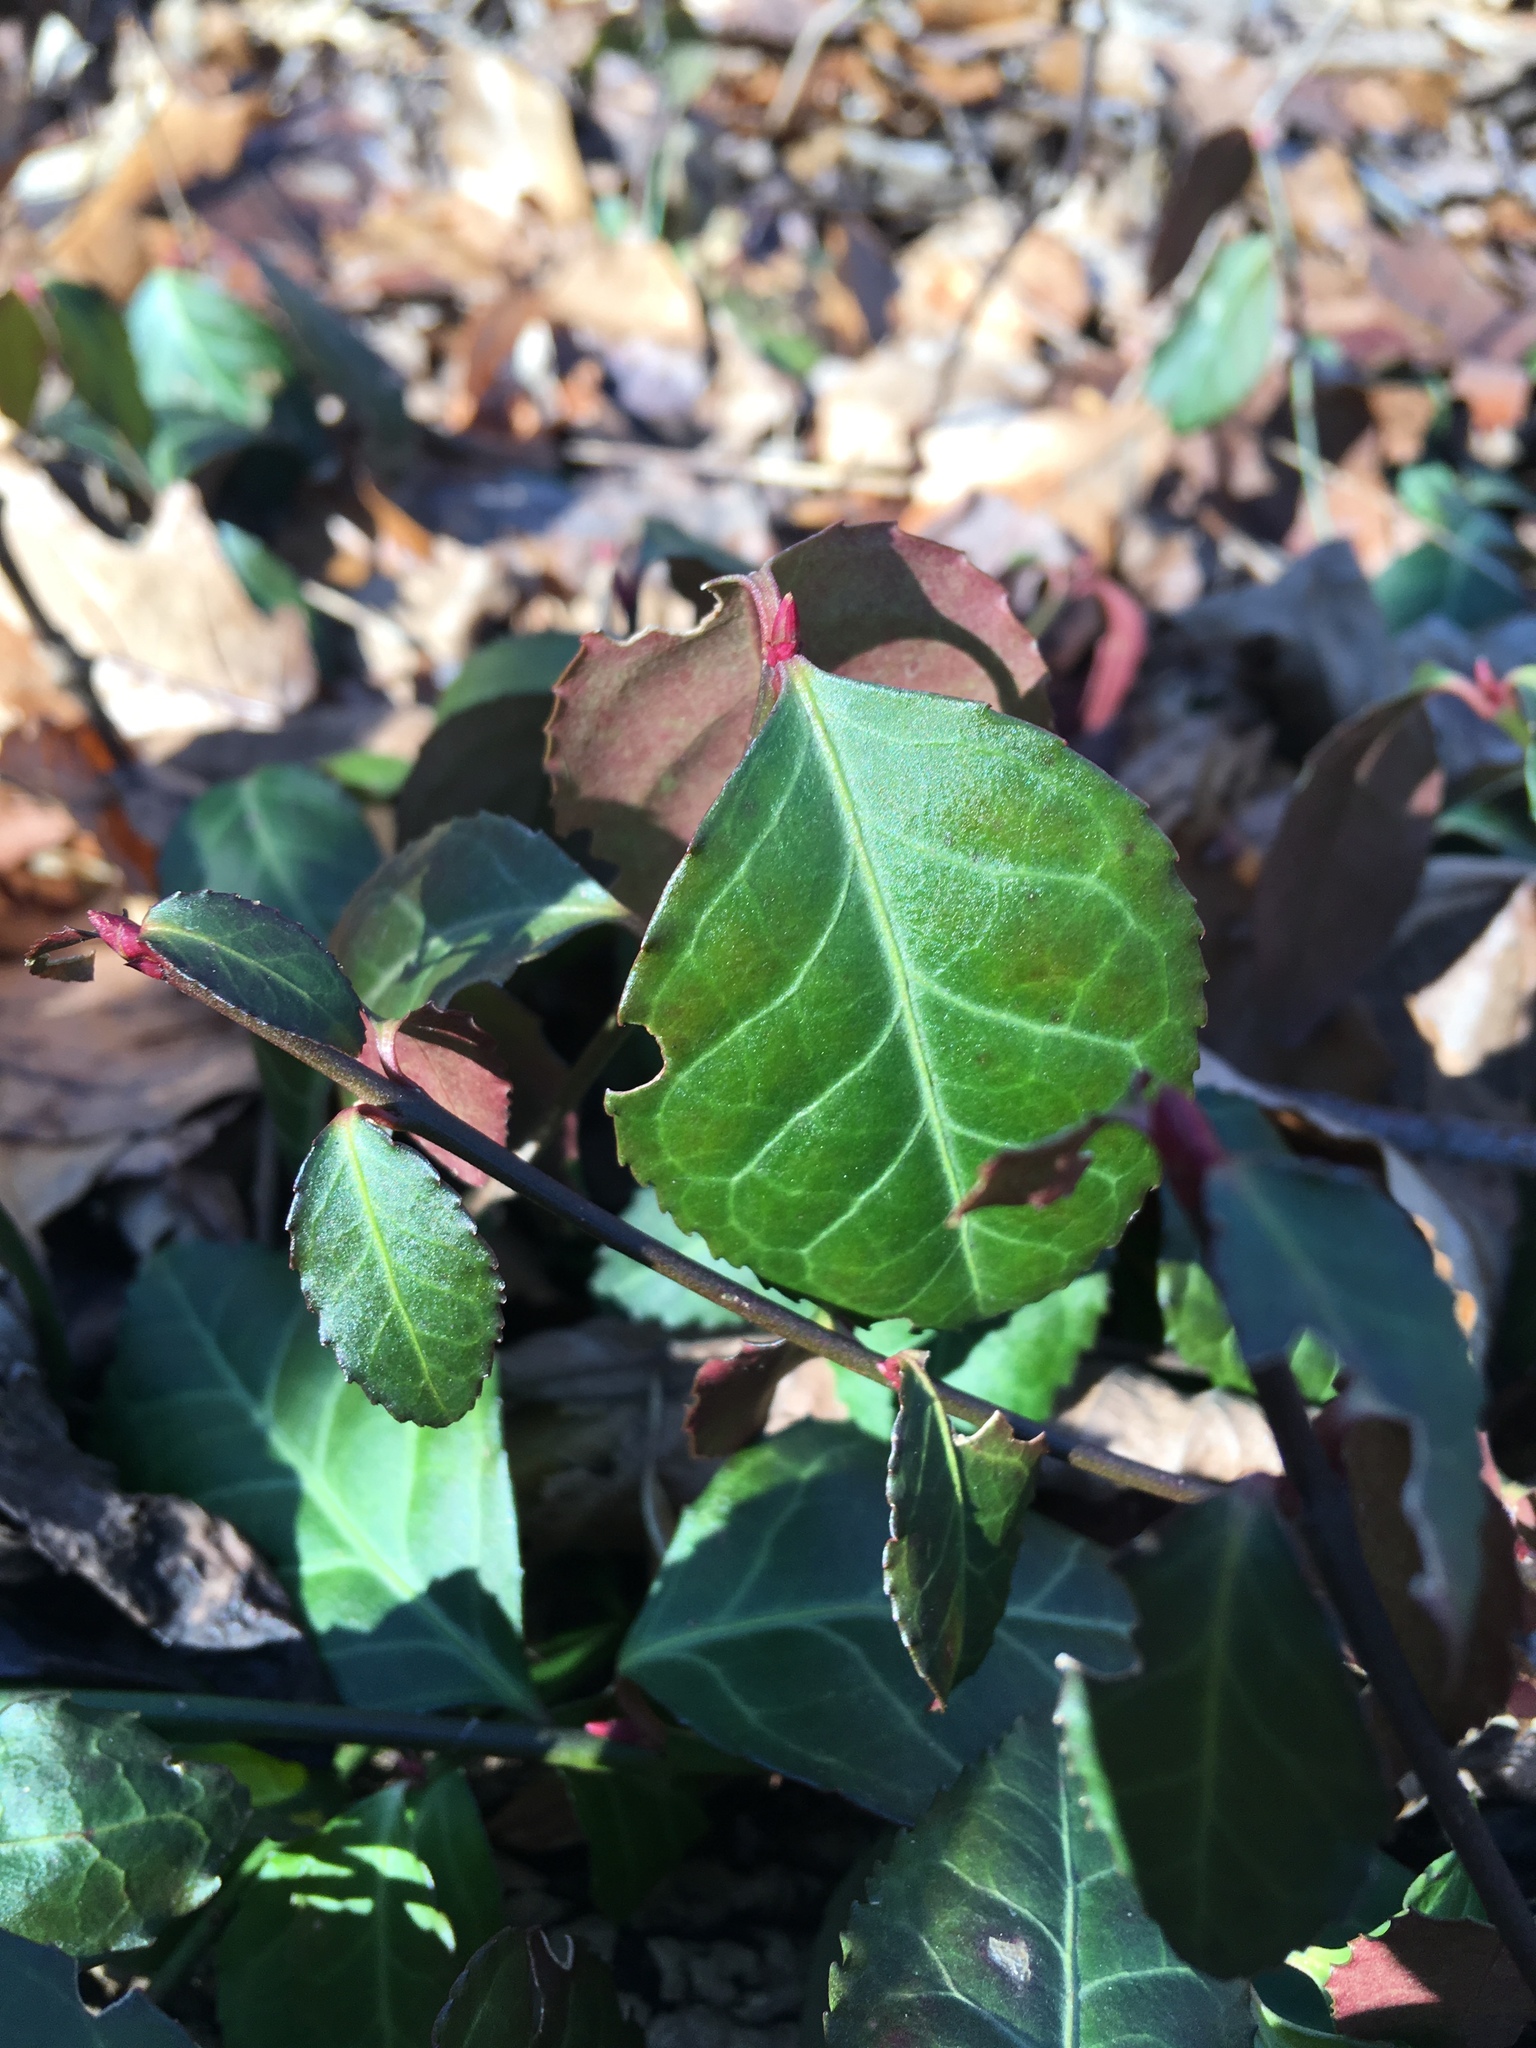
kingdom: Plantae
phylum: Tracheophyta
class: Magnoliopsida
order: Celastrales
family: Celastraceae
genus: Euonymus
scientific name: Euonymus fortunei
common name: Climbing euonymus
